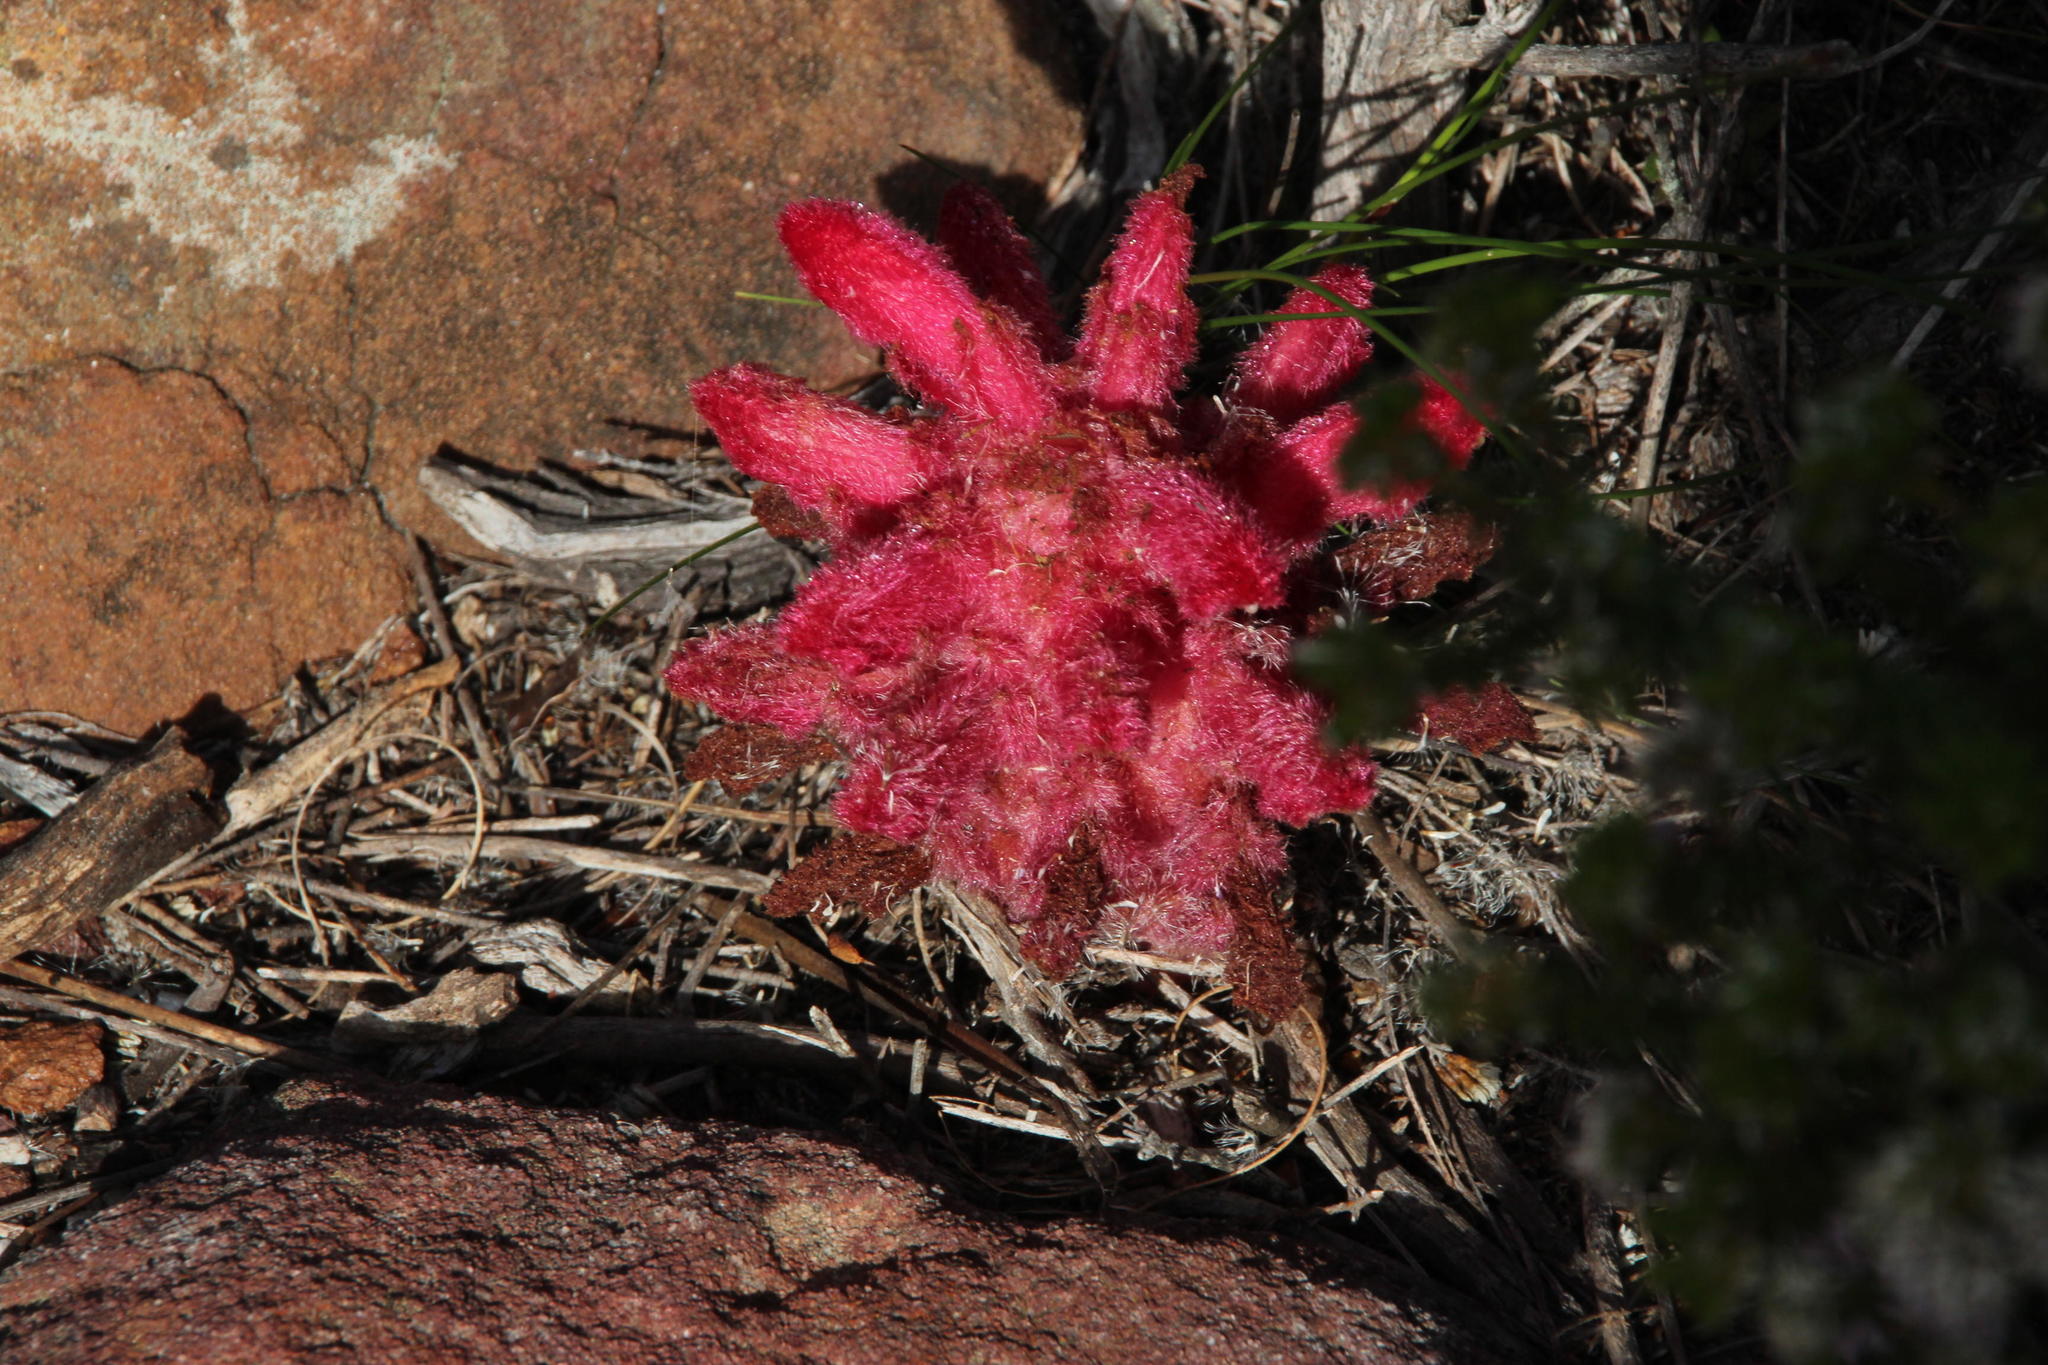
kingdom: Plantae
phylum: Tracheophyta
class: Magnoliopsida
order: Lamiales
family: Orobanchaceae
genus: Hyobanche
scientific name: Hyobanche sanguinea
